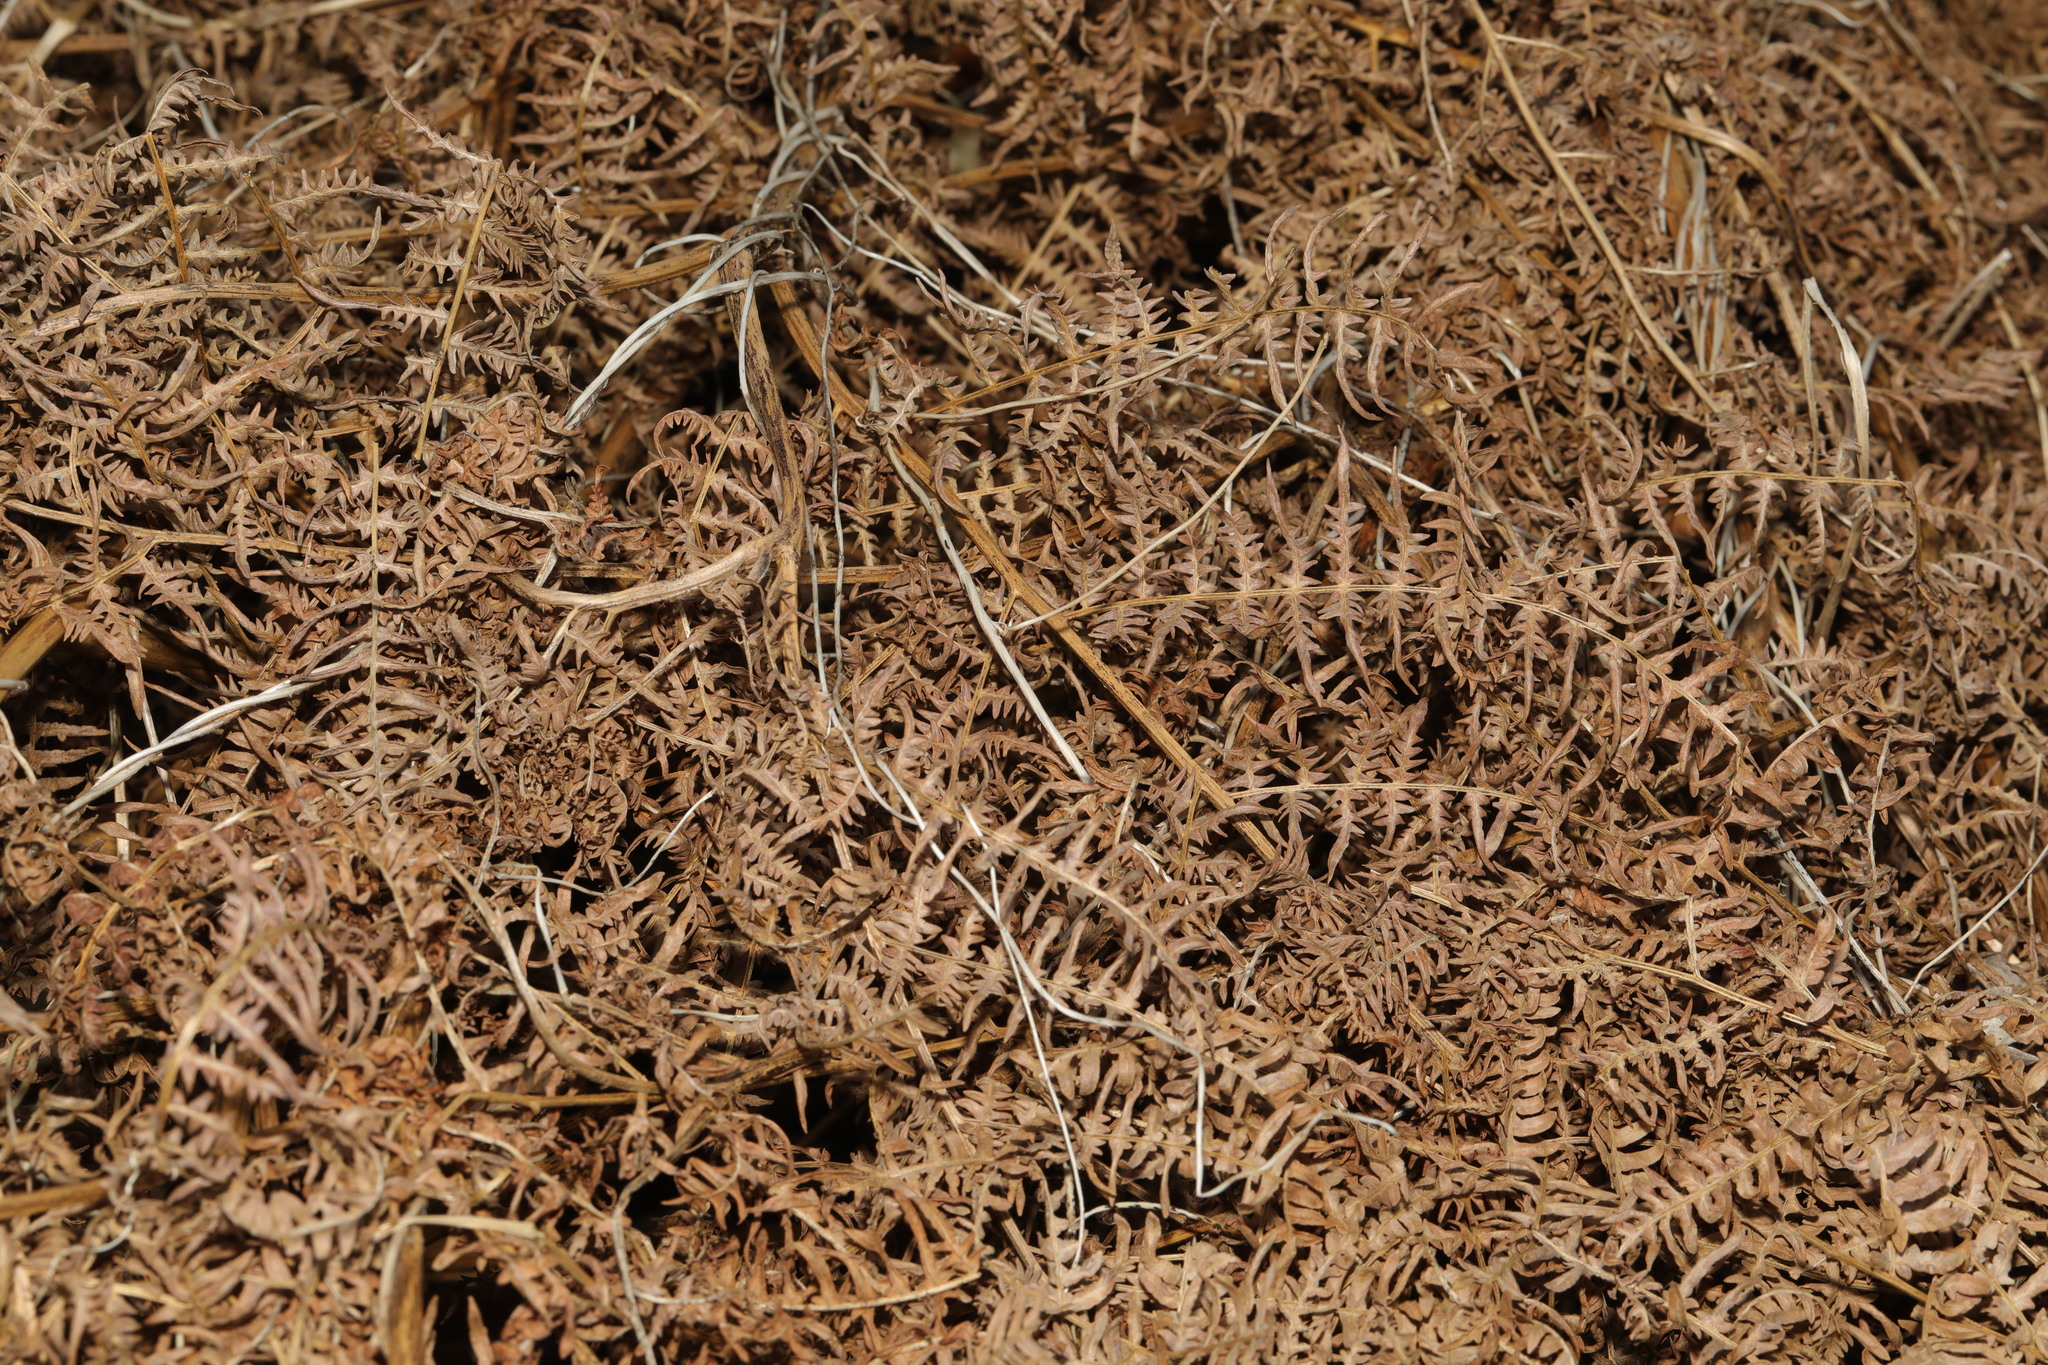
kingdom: Plantae
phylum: Tracheophyta
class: Polypodiopsida
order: Polypodiales
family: Dennstaedtiaceae
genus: Pteridium
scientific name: Pteridium aquilinum
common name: Bracken
